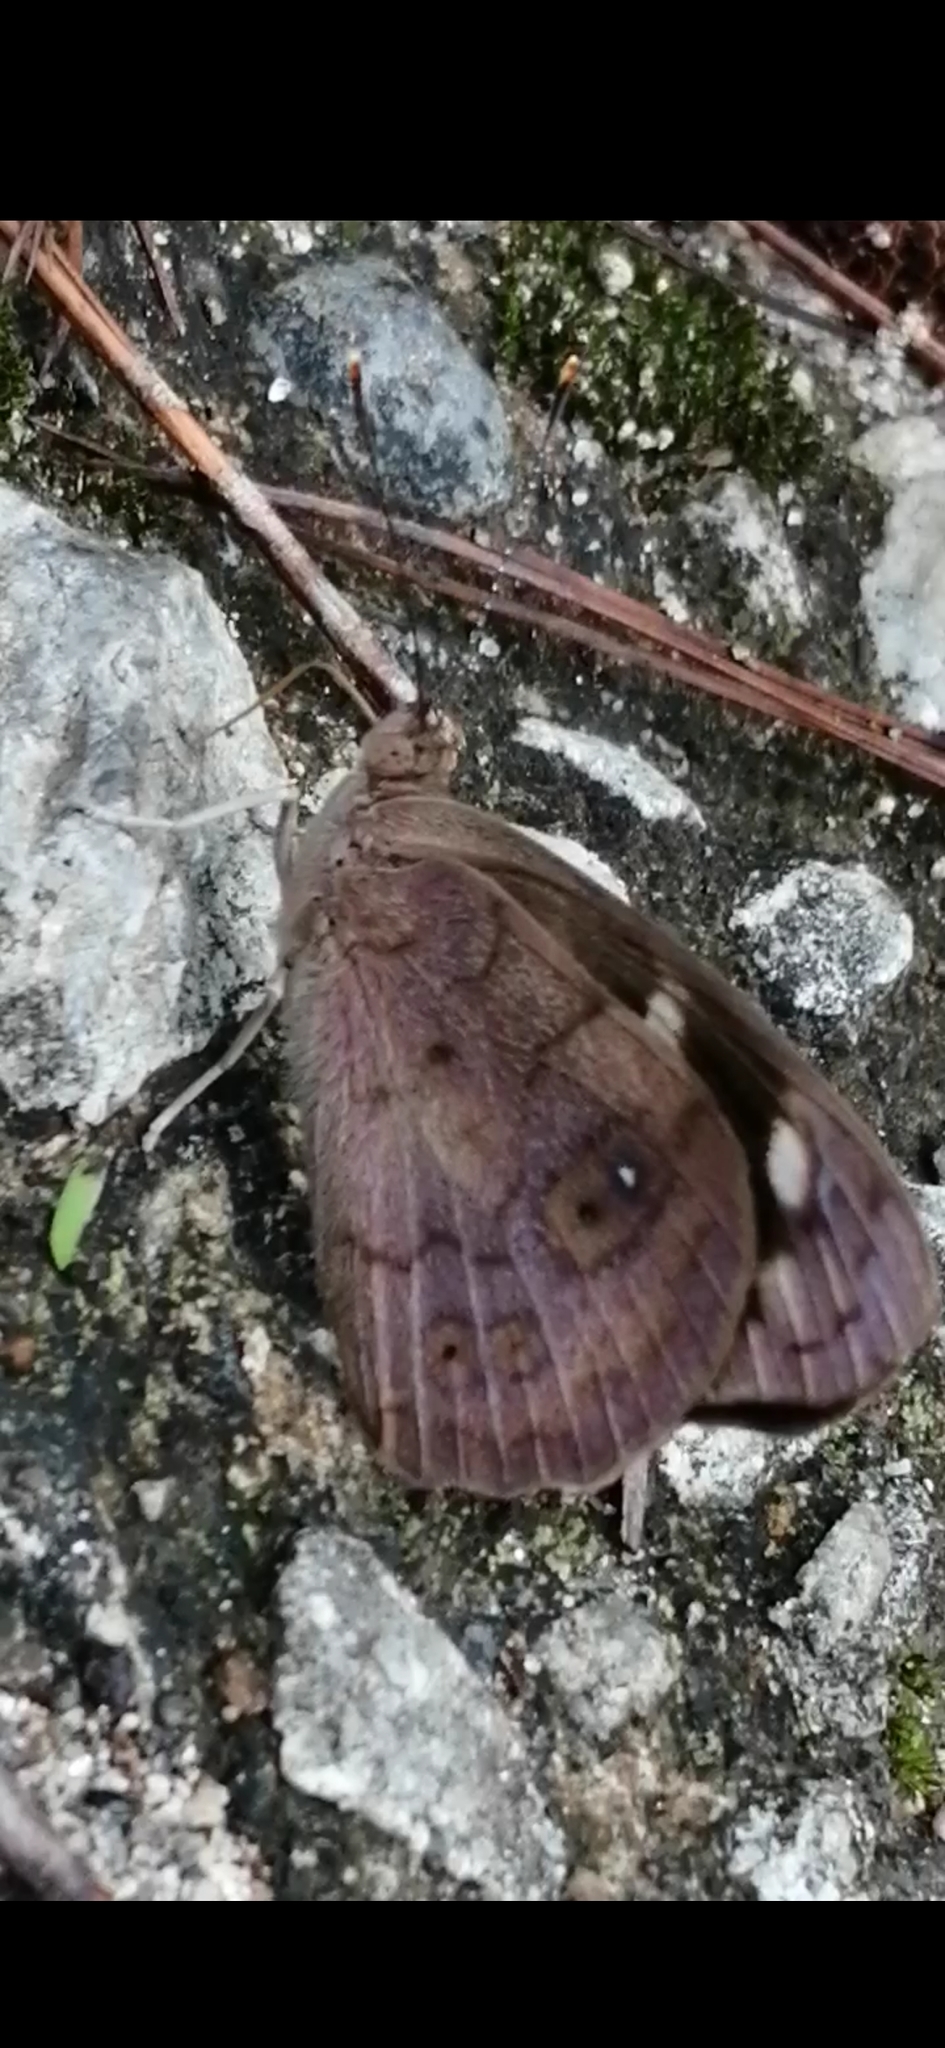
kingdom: Animalia
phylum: Arthropoda
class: Insecta
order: Lepidoptera
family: Nymphalidae
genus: Eunica
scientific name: Eunica monima
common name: Dingy purplewing
